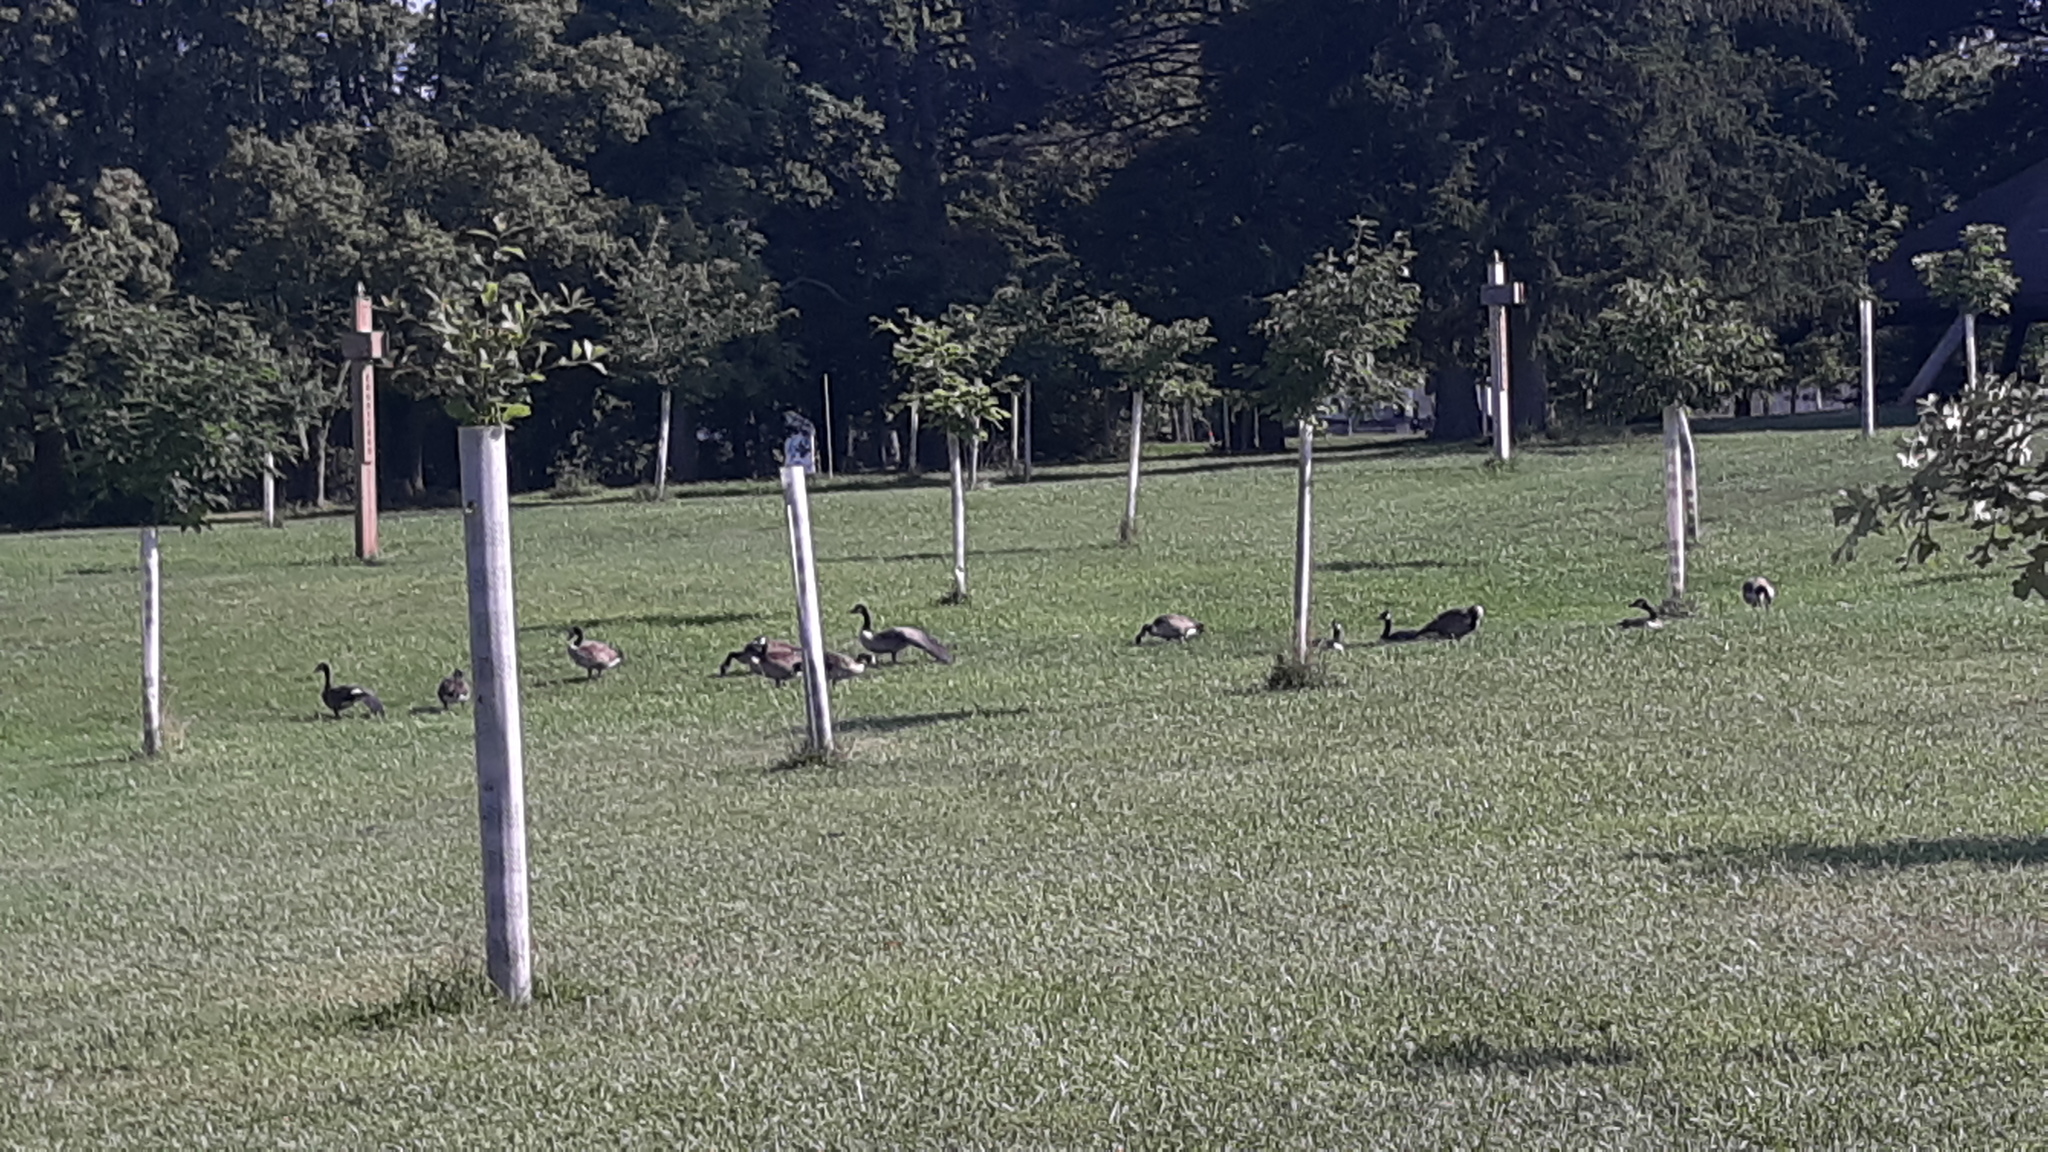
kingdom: Animalia
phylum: Chordata
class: Aves
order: Anseriformes
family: Anatidae
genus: Branta
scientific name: Branta canadensis
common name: Canada goose
